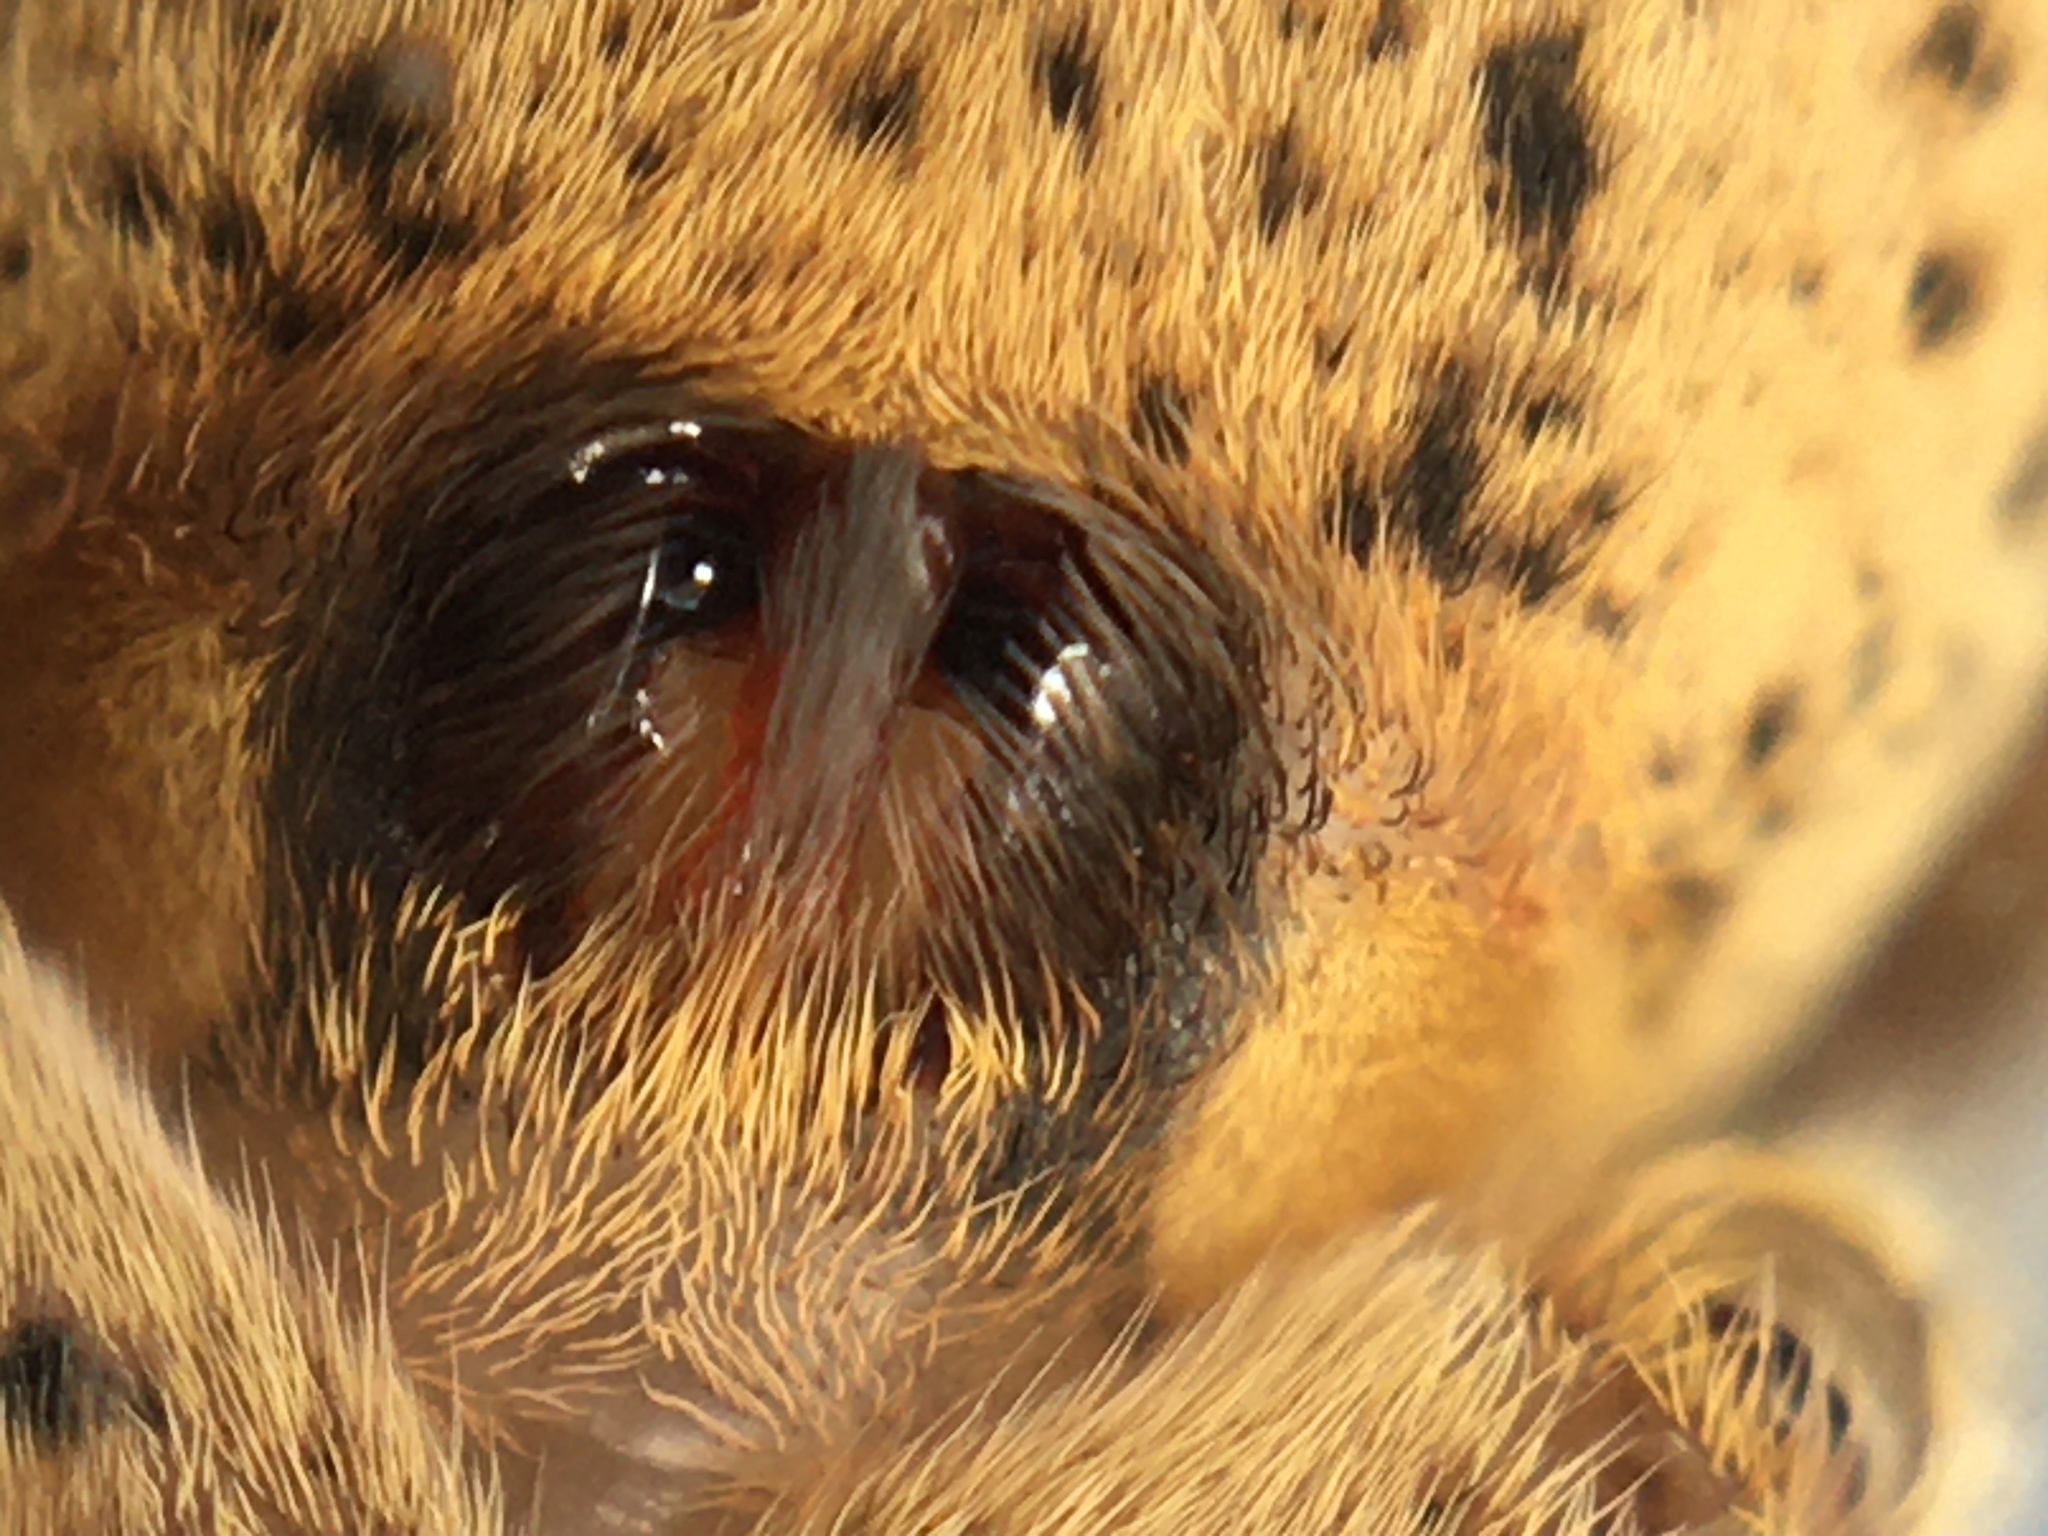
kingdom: Animalia
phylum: Arthropoda
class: Arachnida
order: Araneae
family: Zoropsidae
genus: Zoropsis
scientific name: Zoropsis spinimana
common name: Zoropsid spider
